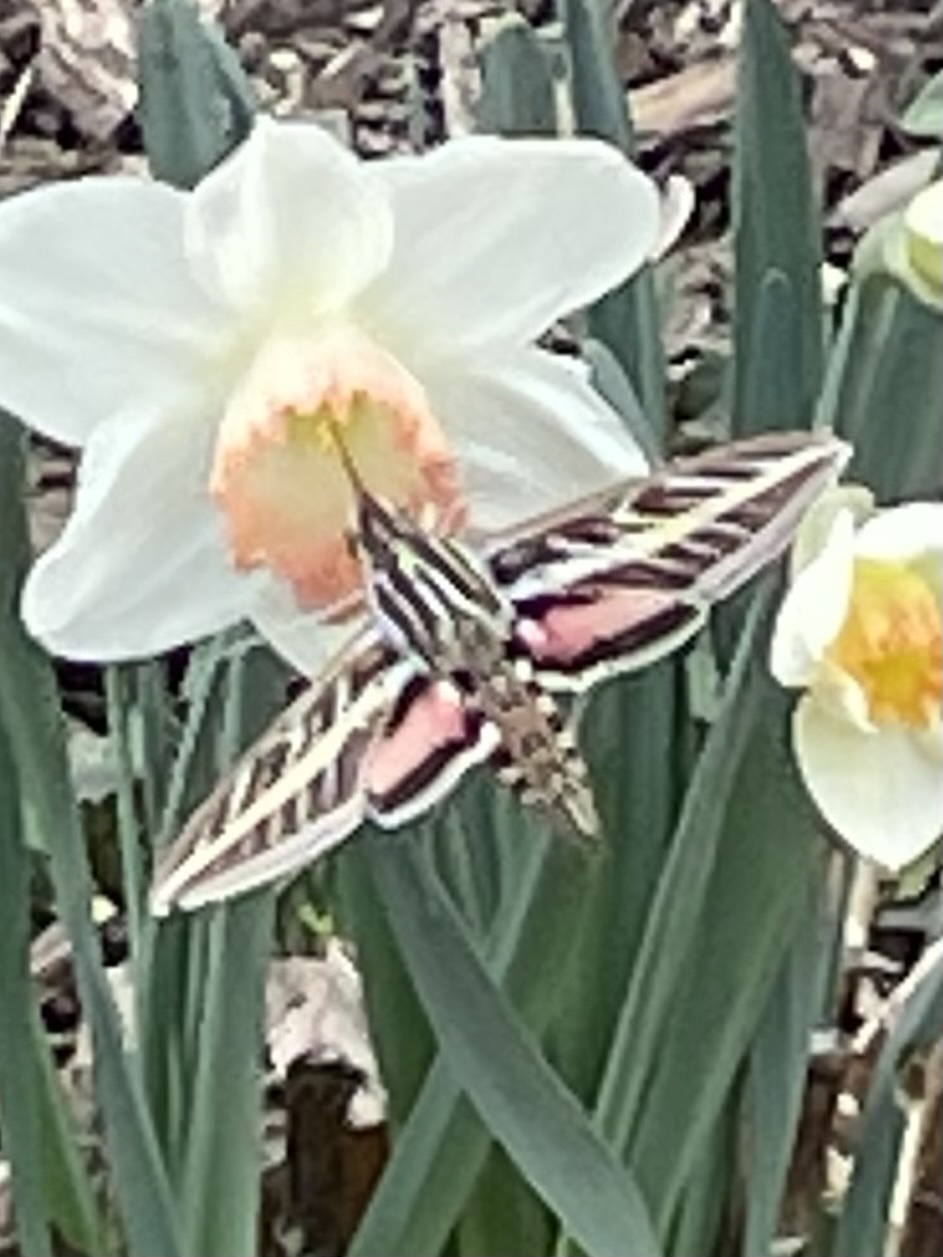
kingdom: Animalia
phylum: Arthropoda
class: Insecta
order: Lepidoptera
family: Sphingidae
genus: Hyles
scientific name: Hyles lineata
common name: White-lined sphinx
